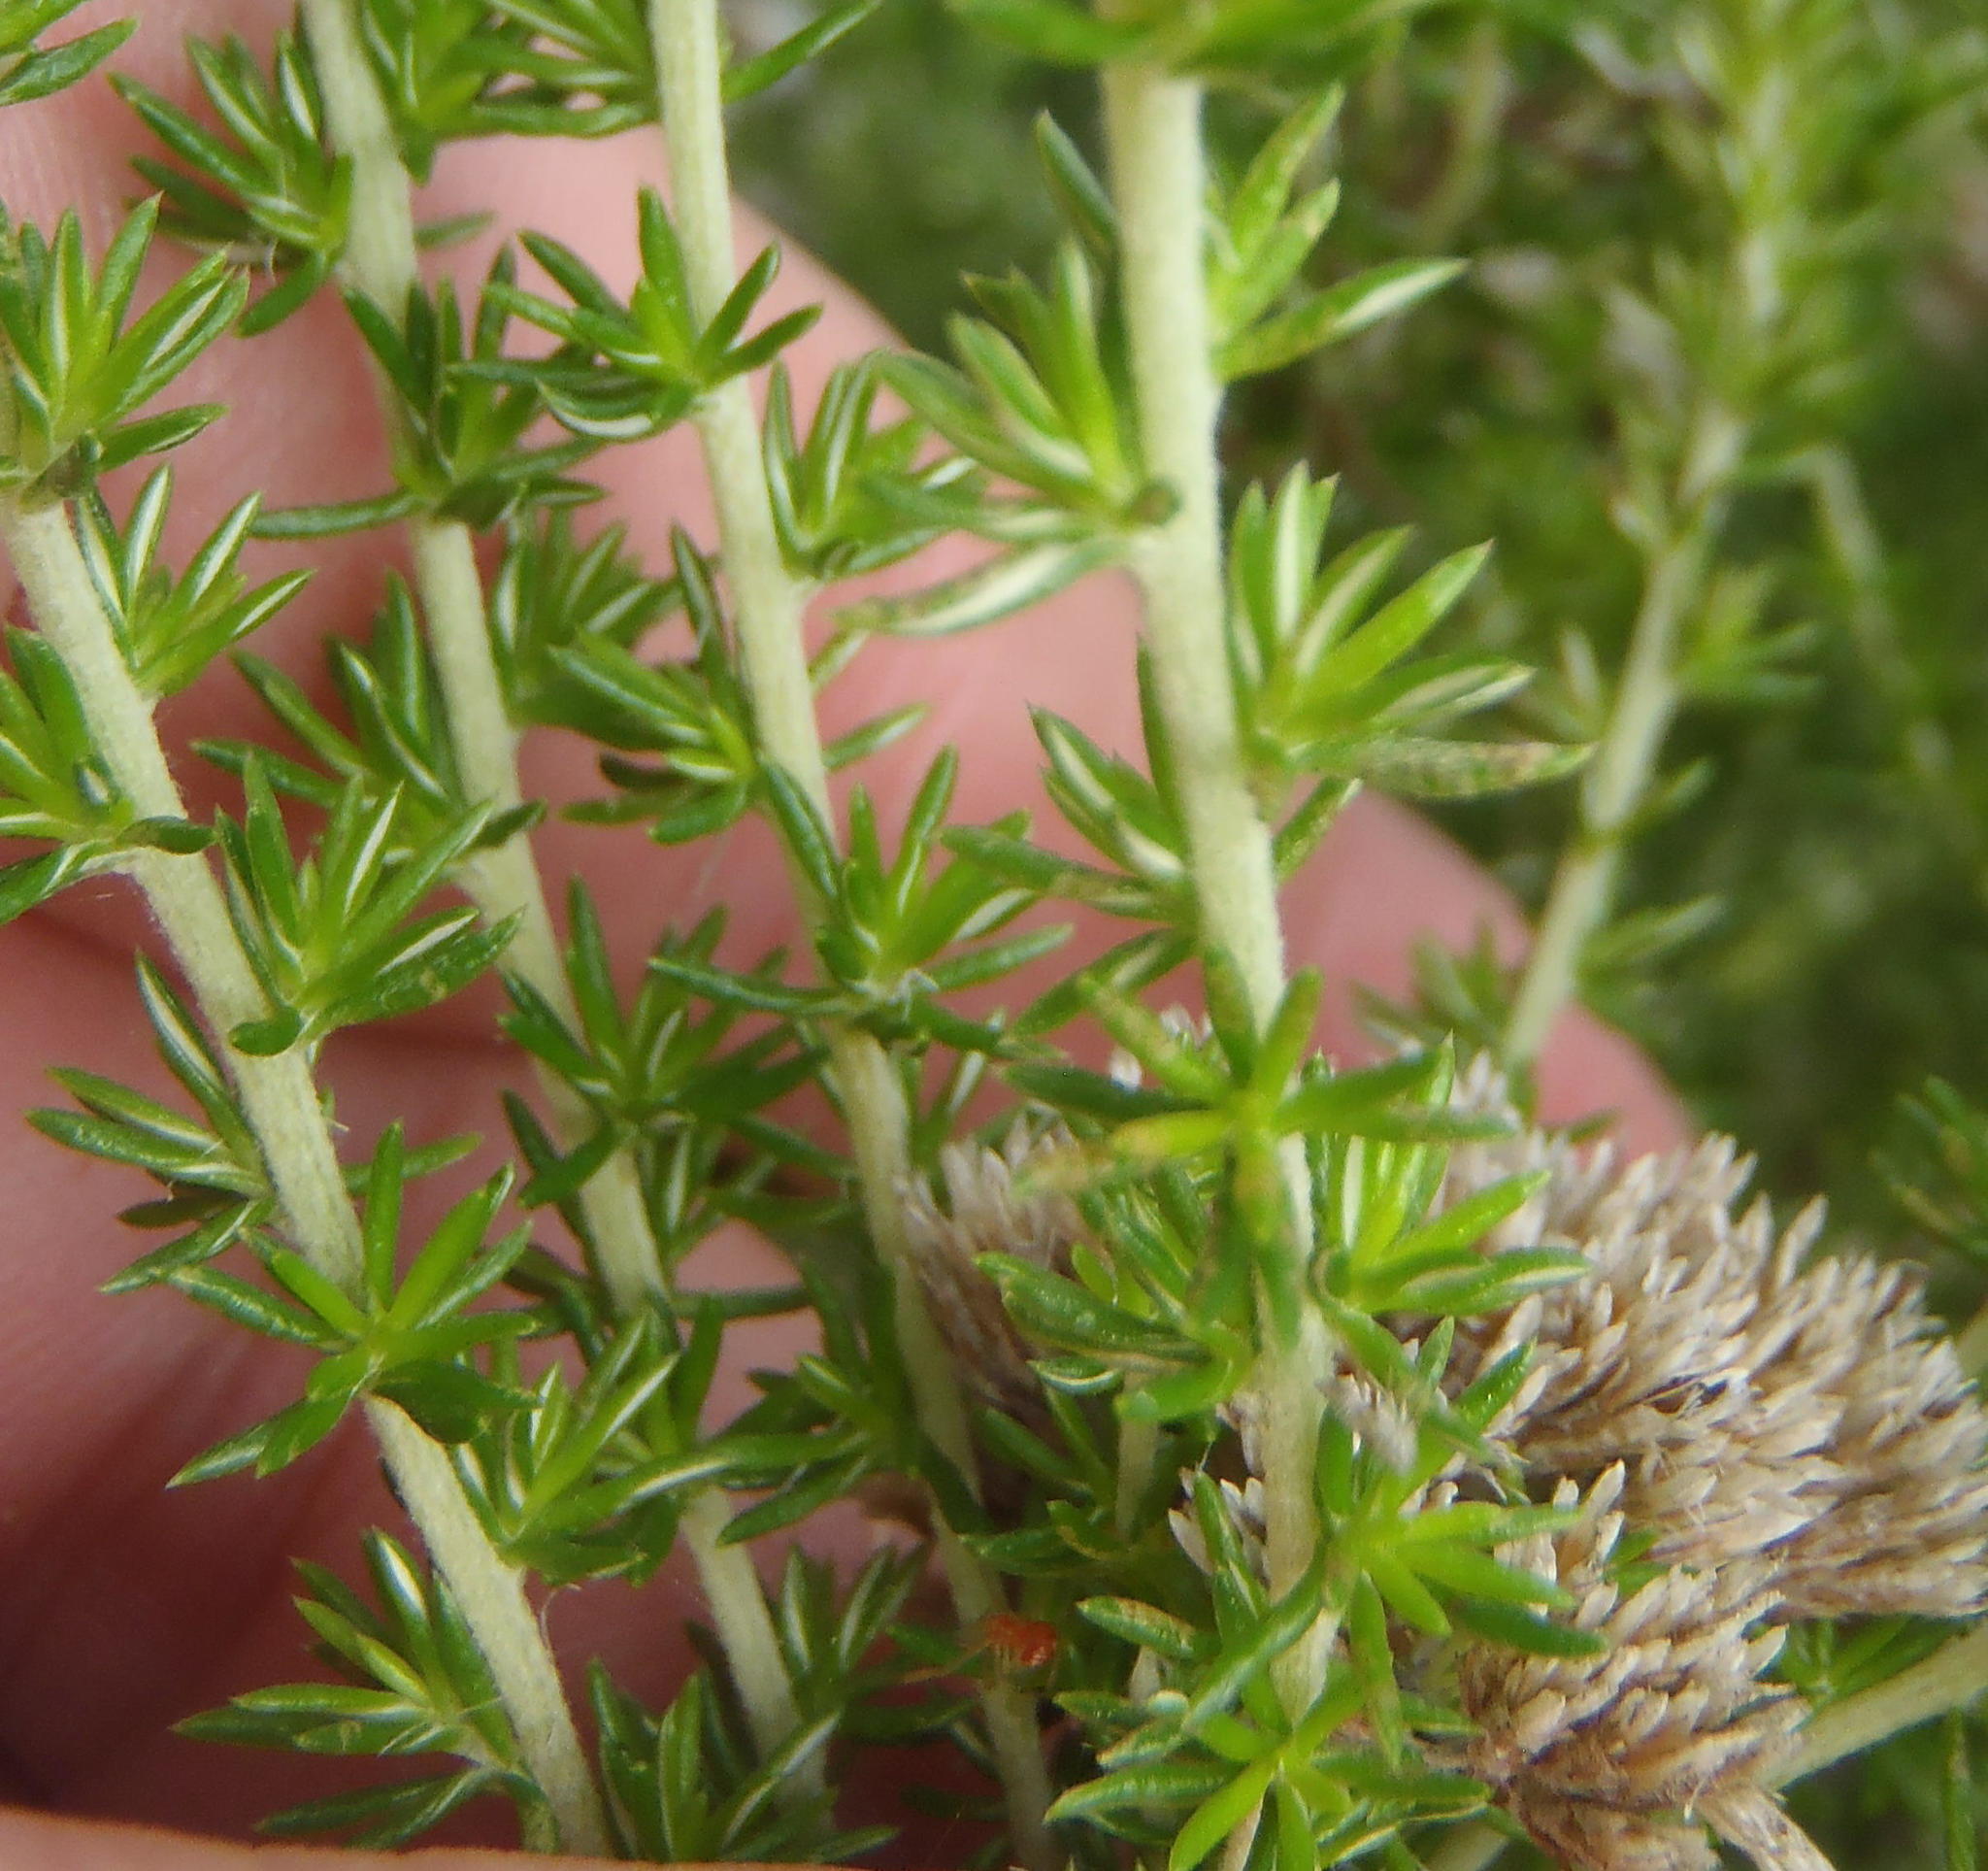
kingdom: Plantae
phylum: Tracheophyta
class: Magnoliopsida
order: Asterales
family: Asteraceae
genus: Metalasia
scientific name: Metalasia muricata
